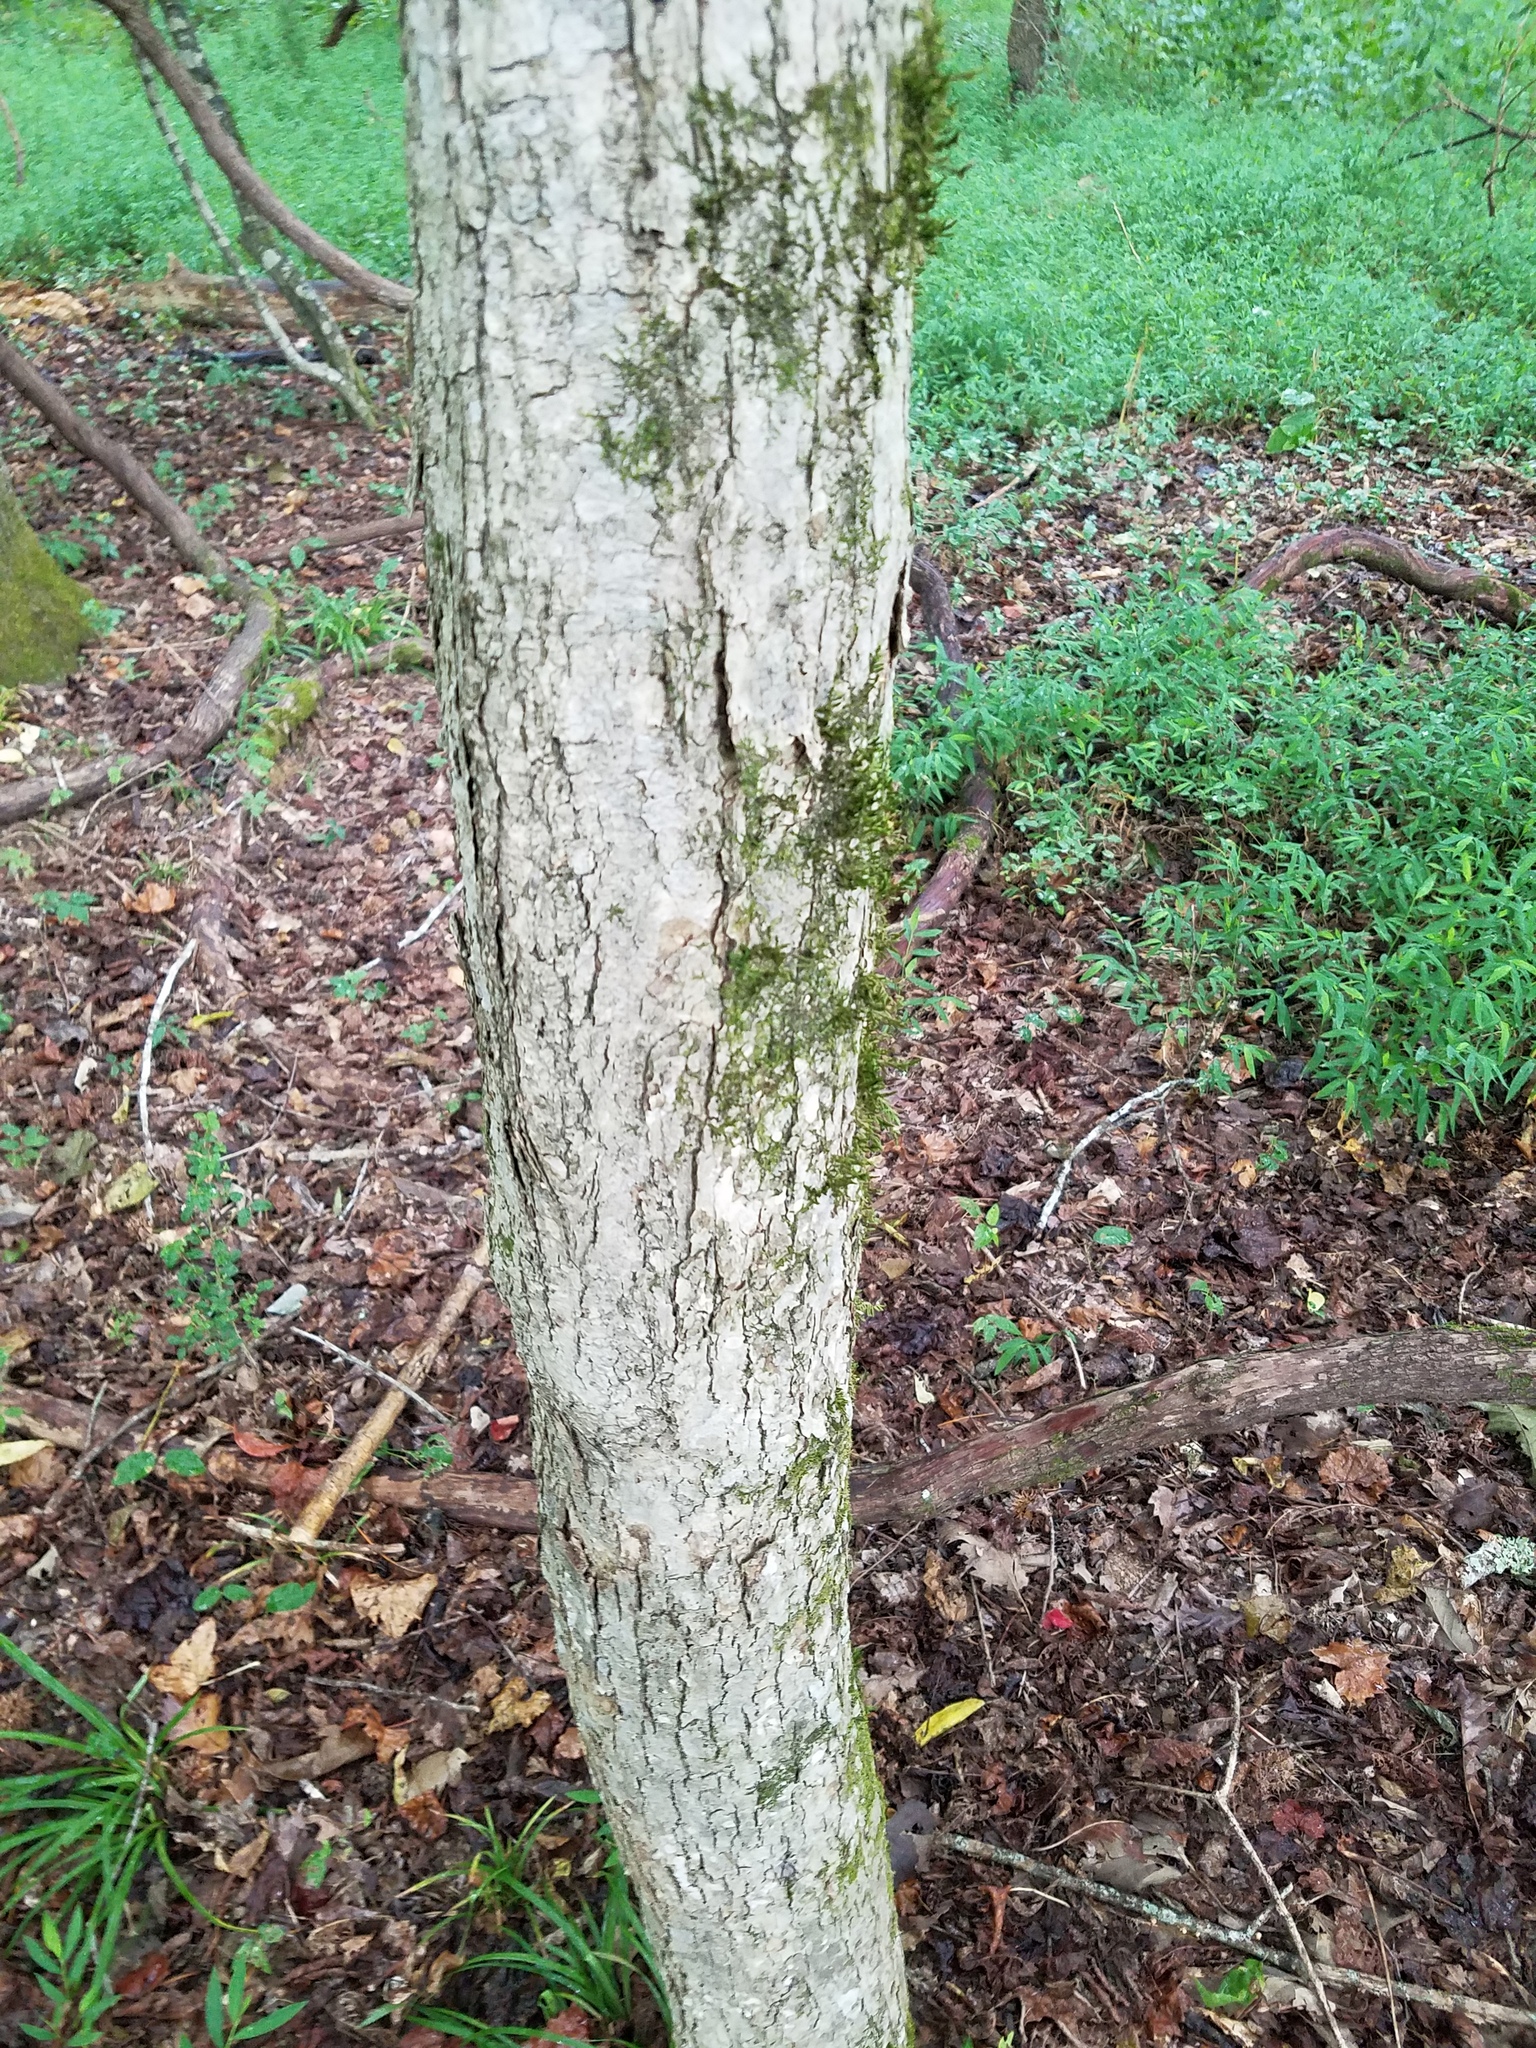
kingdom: Plantae
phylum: Tracheophyta
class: Magnoliopsida
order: Fagales
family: Fagaceae
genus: Quercus
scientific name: Quercus michauxii
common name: Swamp chestnut oak
